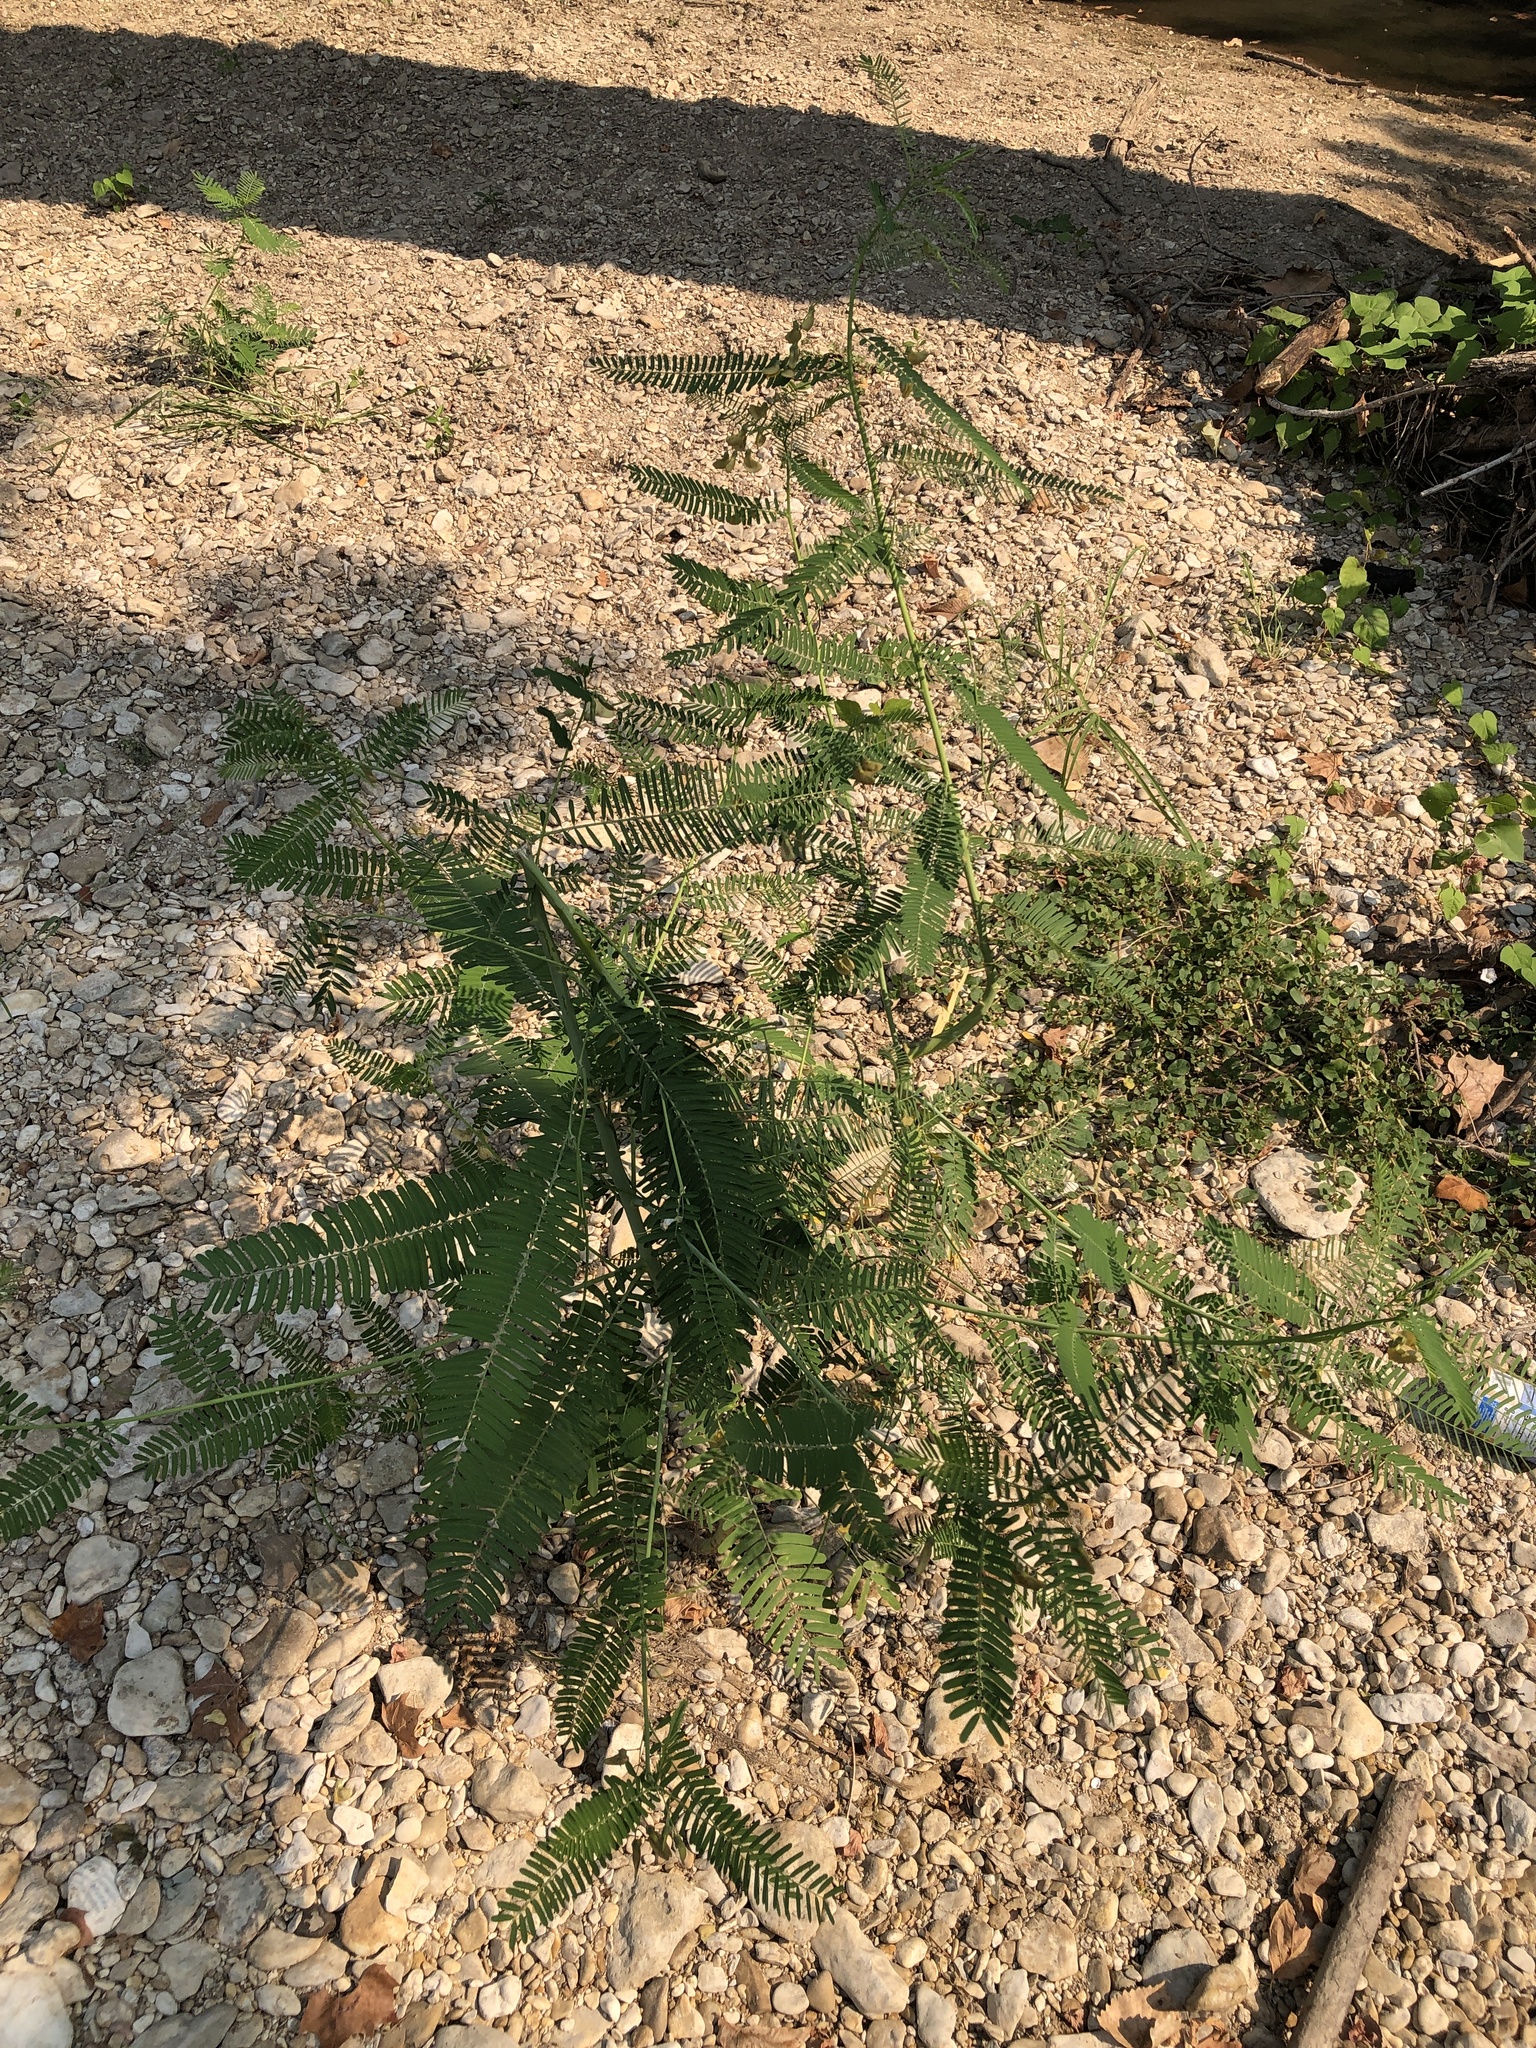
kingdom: Plantae
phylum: Tracheophyta
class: Magnoliopsida
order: Fabales
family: Fabaceae
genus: Sesbania
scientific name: Sesbania herbacea
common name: Bigpod sesbania
